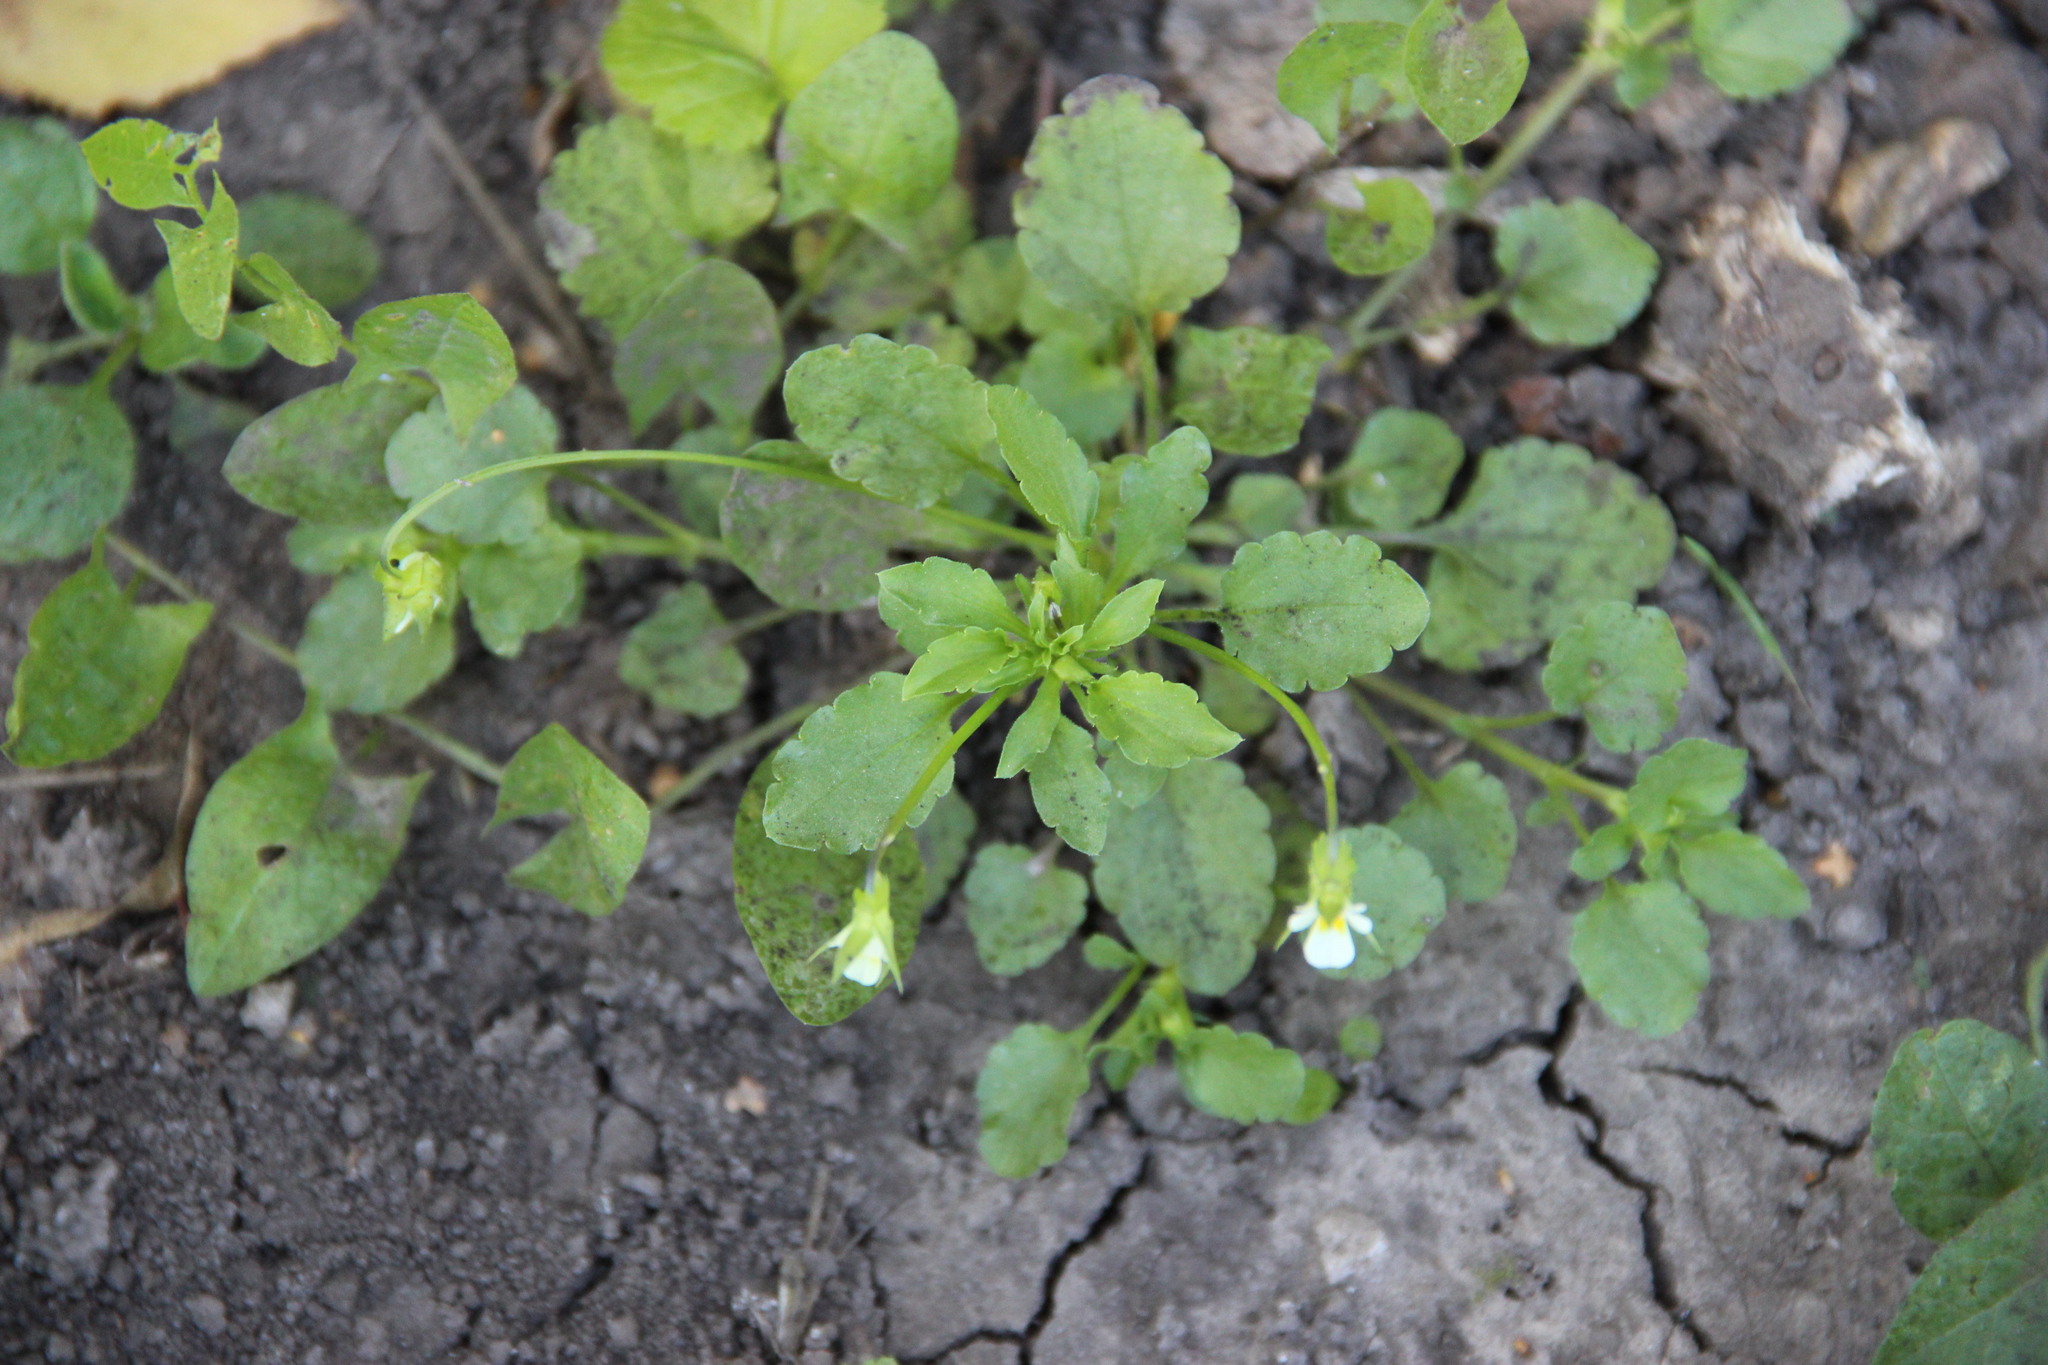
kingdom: Plantae
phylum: Tracheophyta
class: Magnoliopsida
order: Malpighiales
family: Violaceae
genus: Viola
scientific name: Viola arvensis
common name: Field pansy
